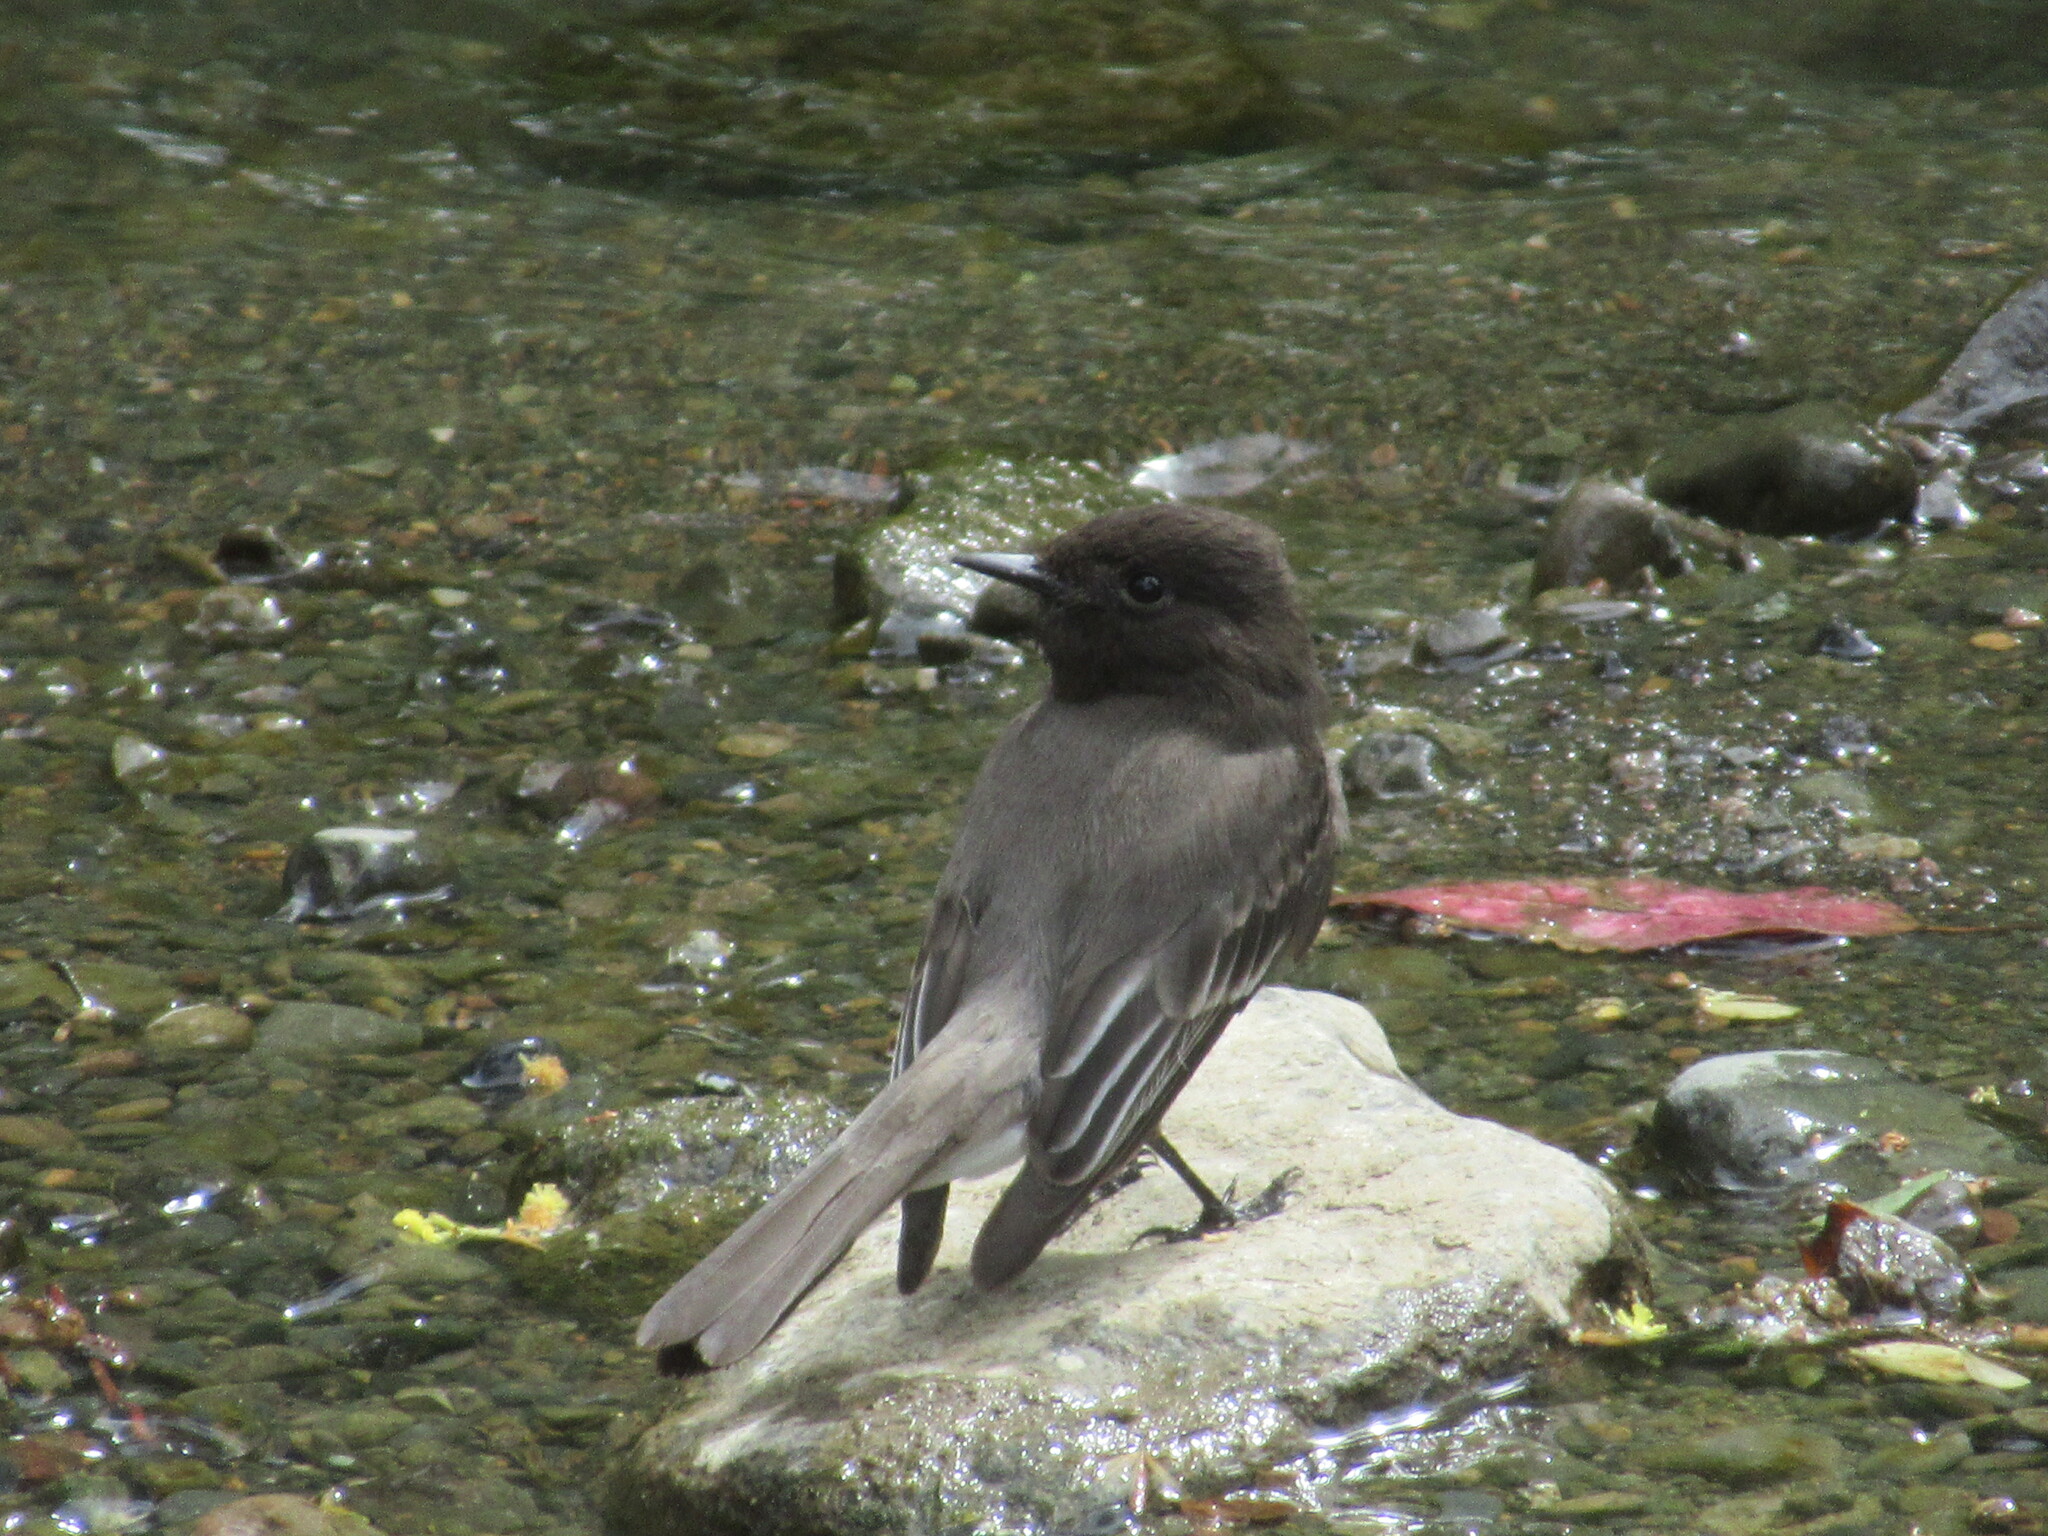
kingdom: Animalia
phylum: Chordata
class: Aves
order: Passeriformes
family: Tyrannidae
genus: Sayornis
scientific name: Sayornis nigricans
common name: Black phoebe
